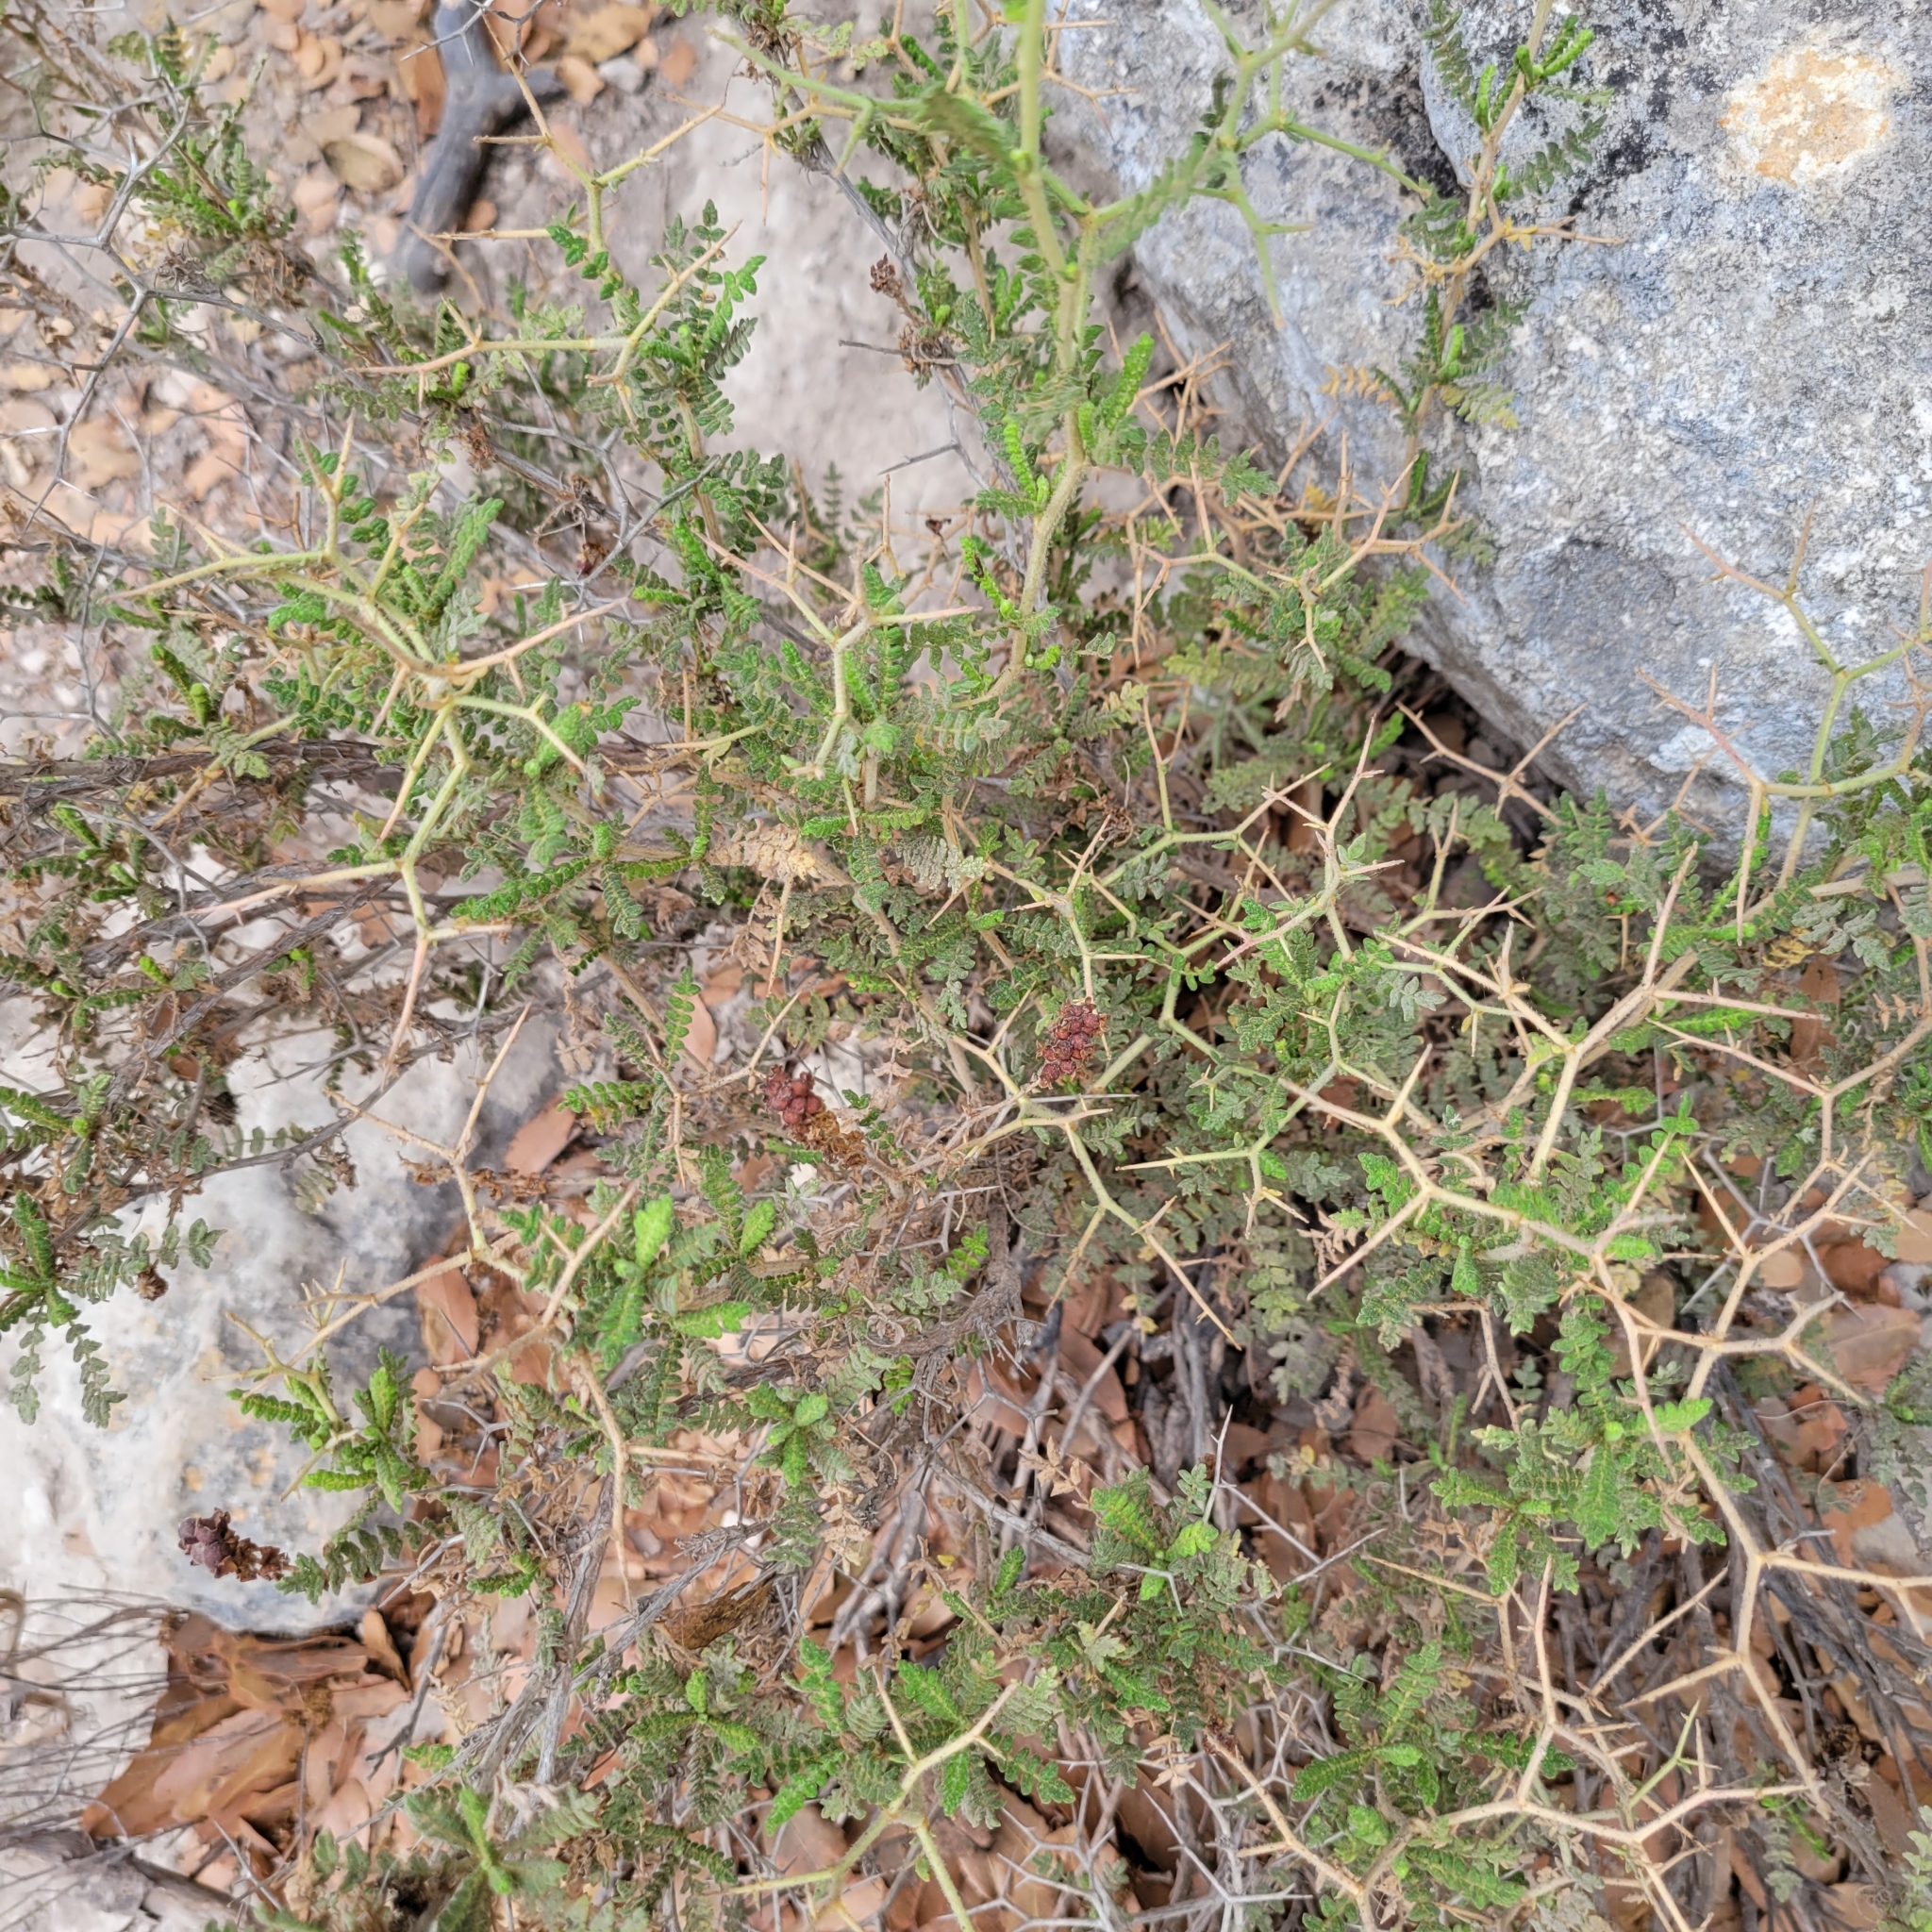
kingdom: Plantae
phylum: Tracheophyta
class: Magnoliopsida
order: Rosales
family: Rosaceae
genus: Sarcopoterium
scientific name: Sarcopoterium spinosum
